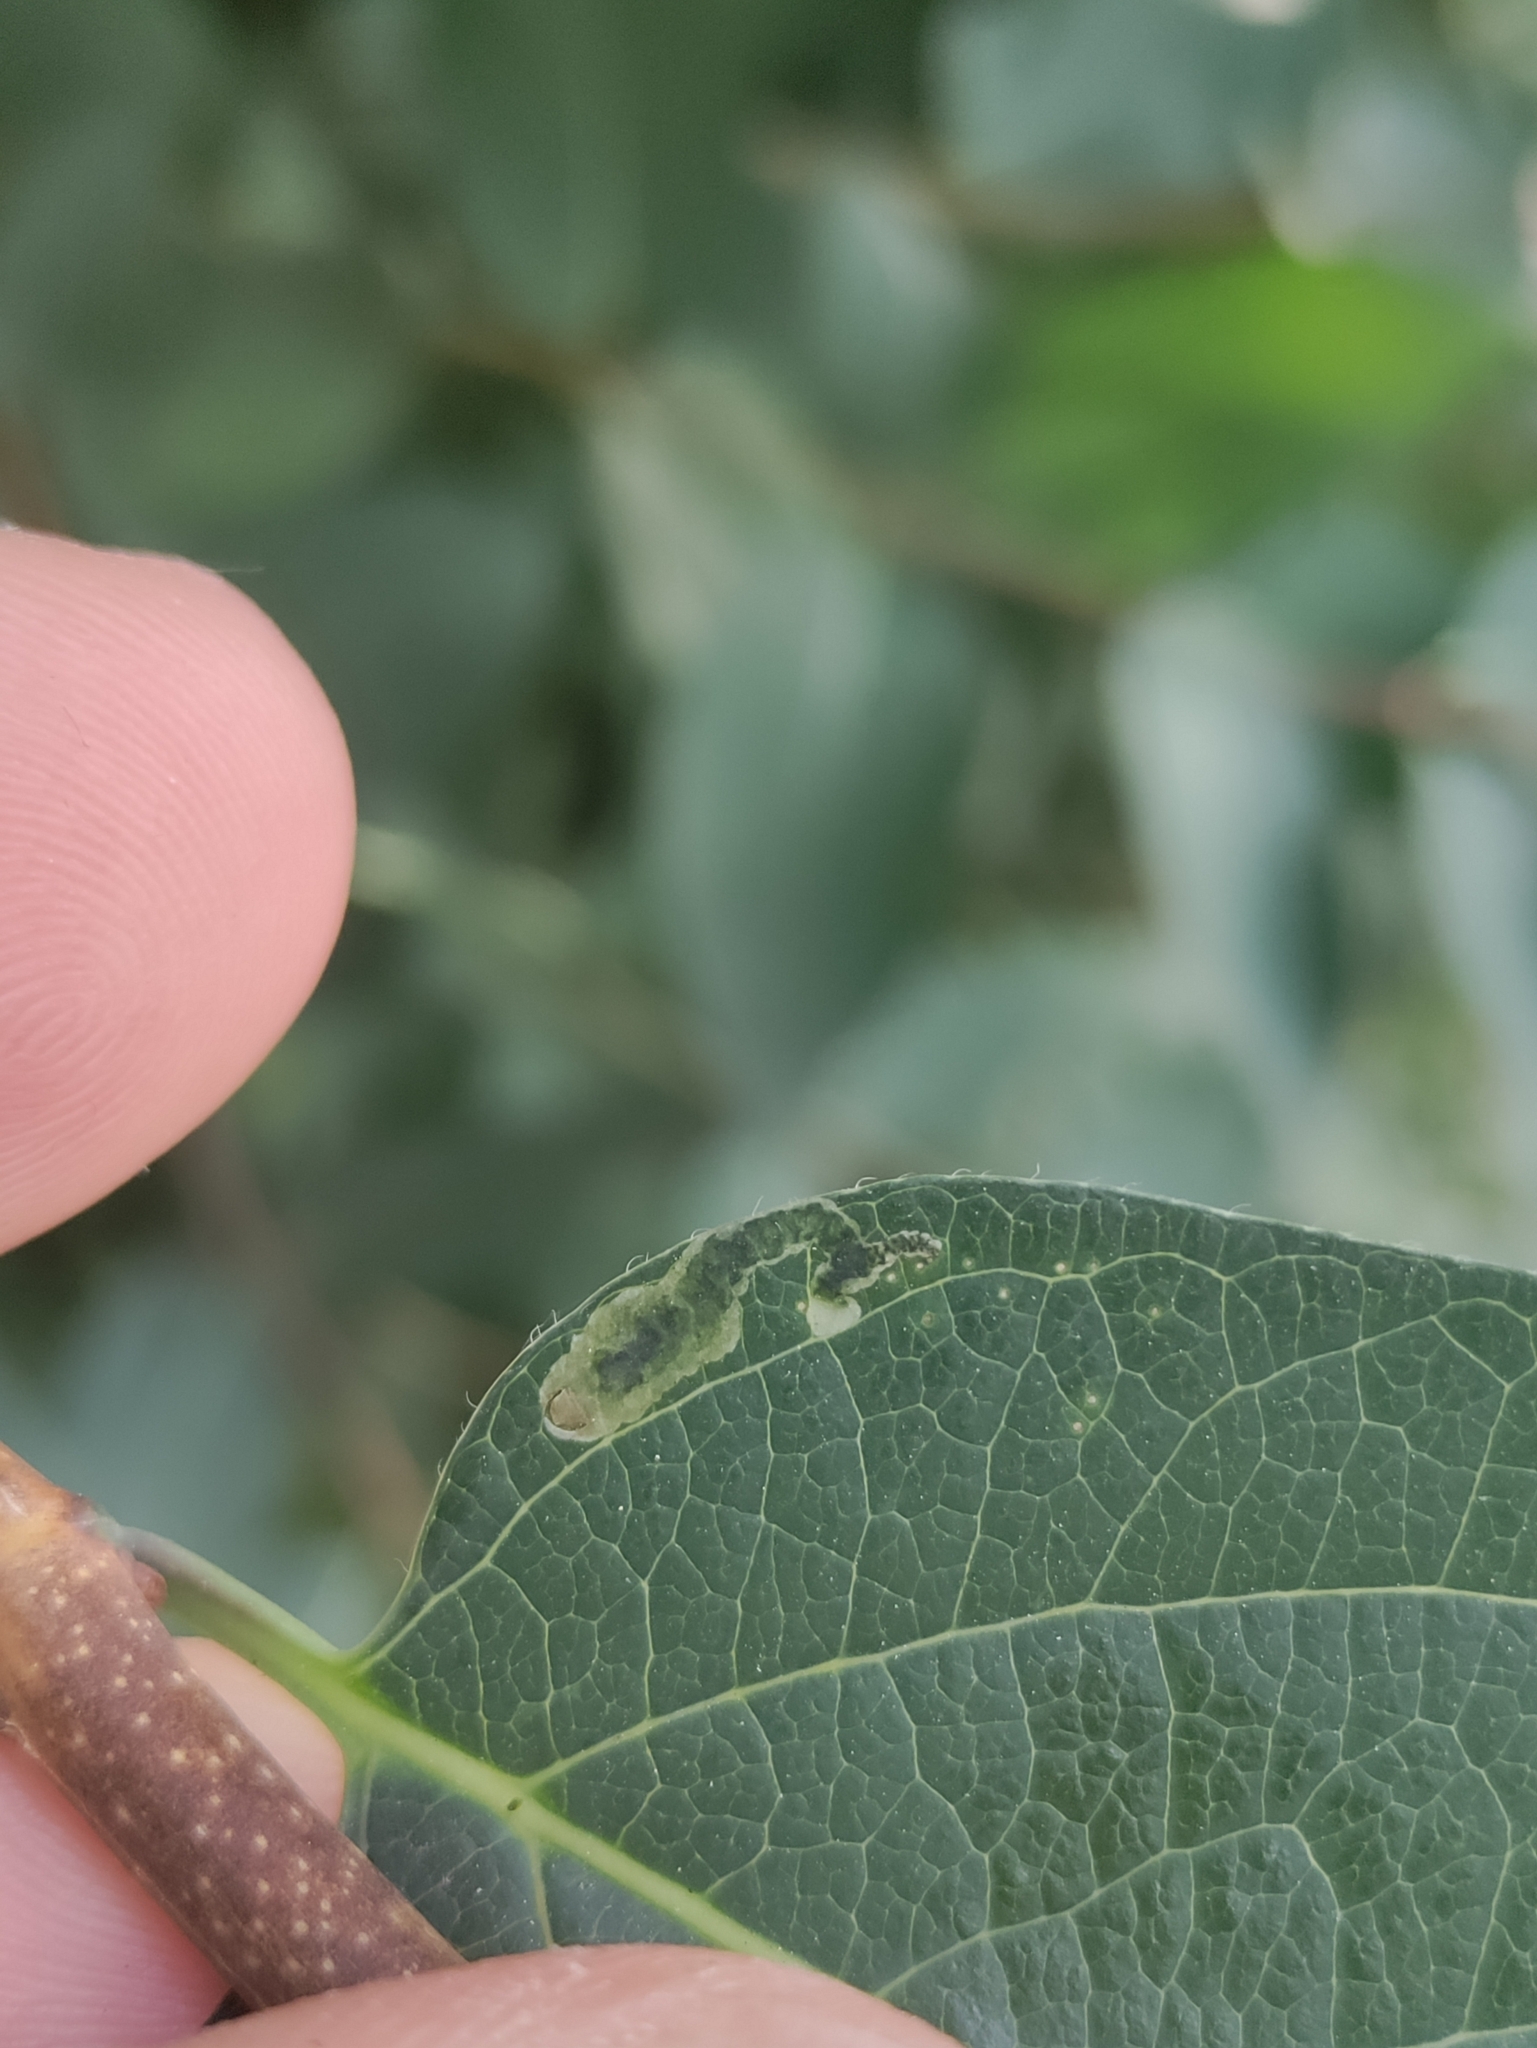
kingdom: Animalia
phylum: Arthropoda
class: Insecta
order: Diptera
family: Agromyzidae
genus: Aulagromyza
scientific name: Aulagromyza luteoscutellata
